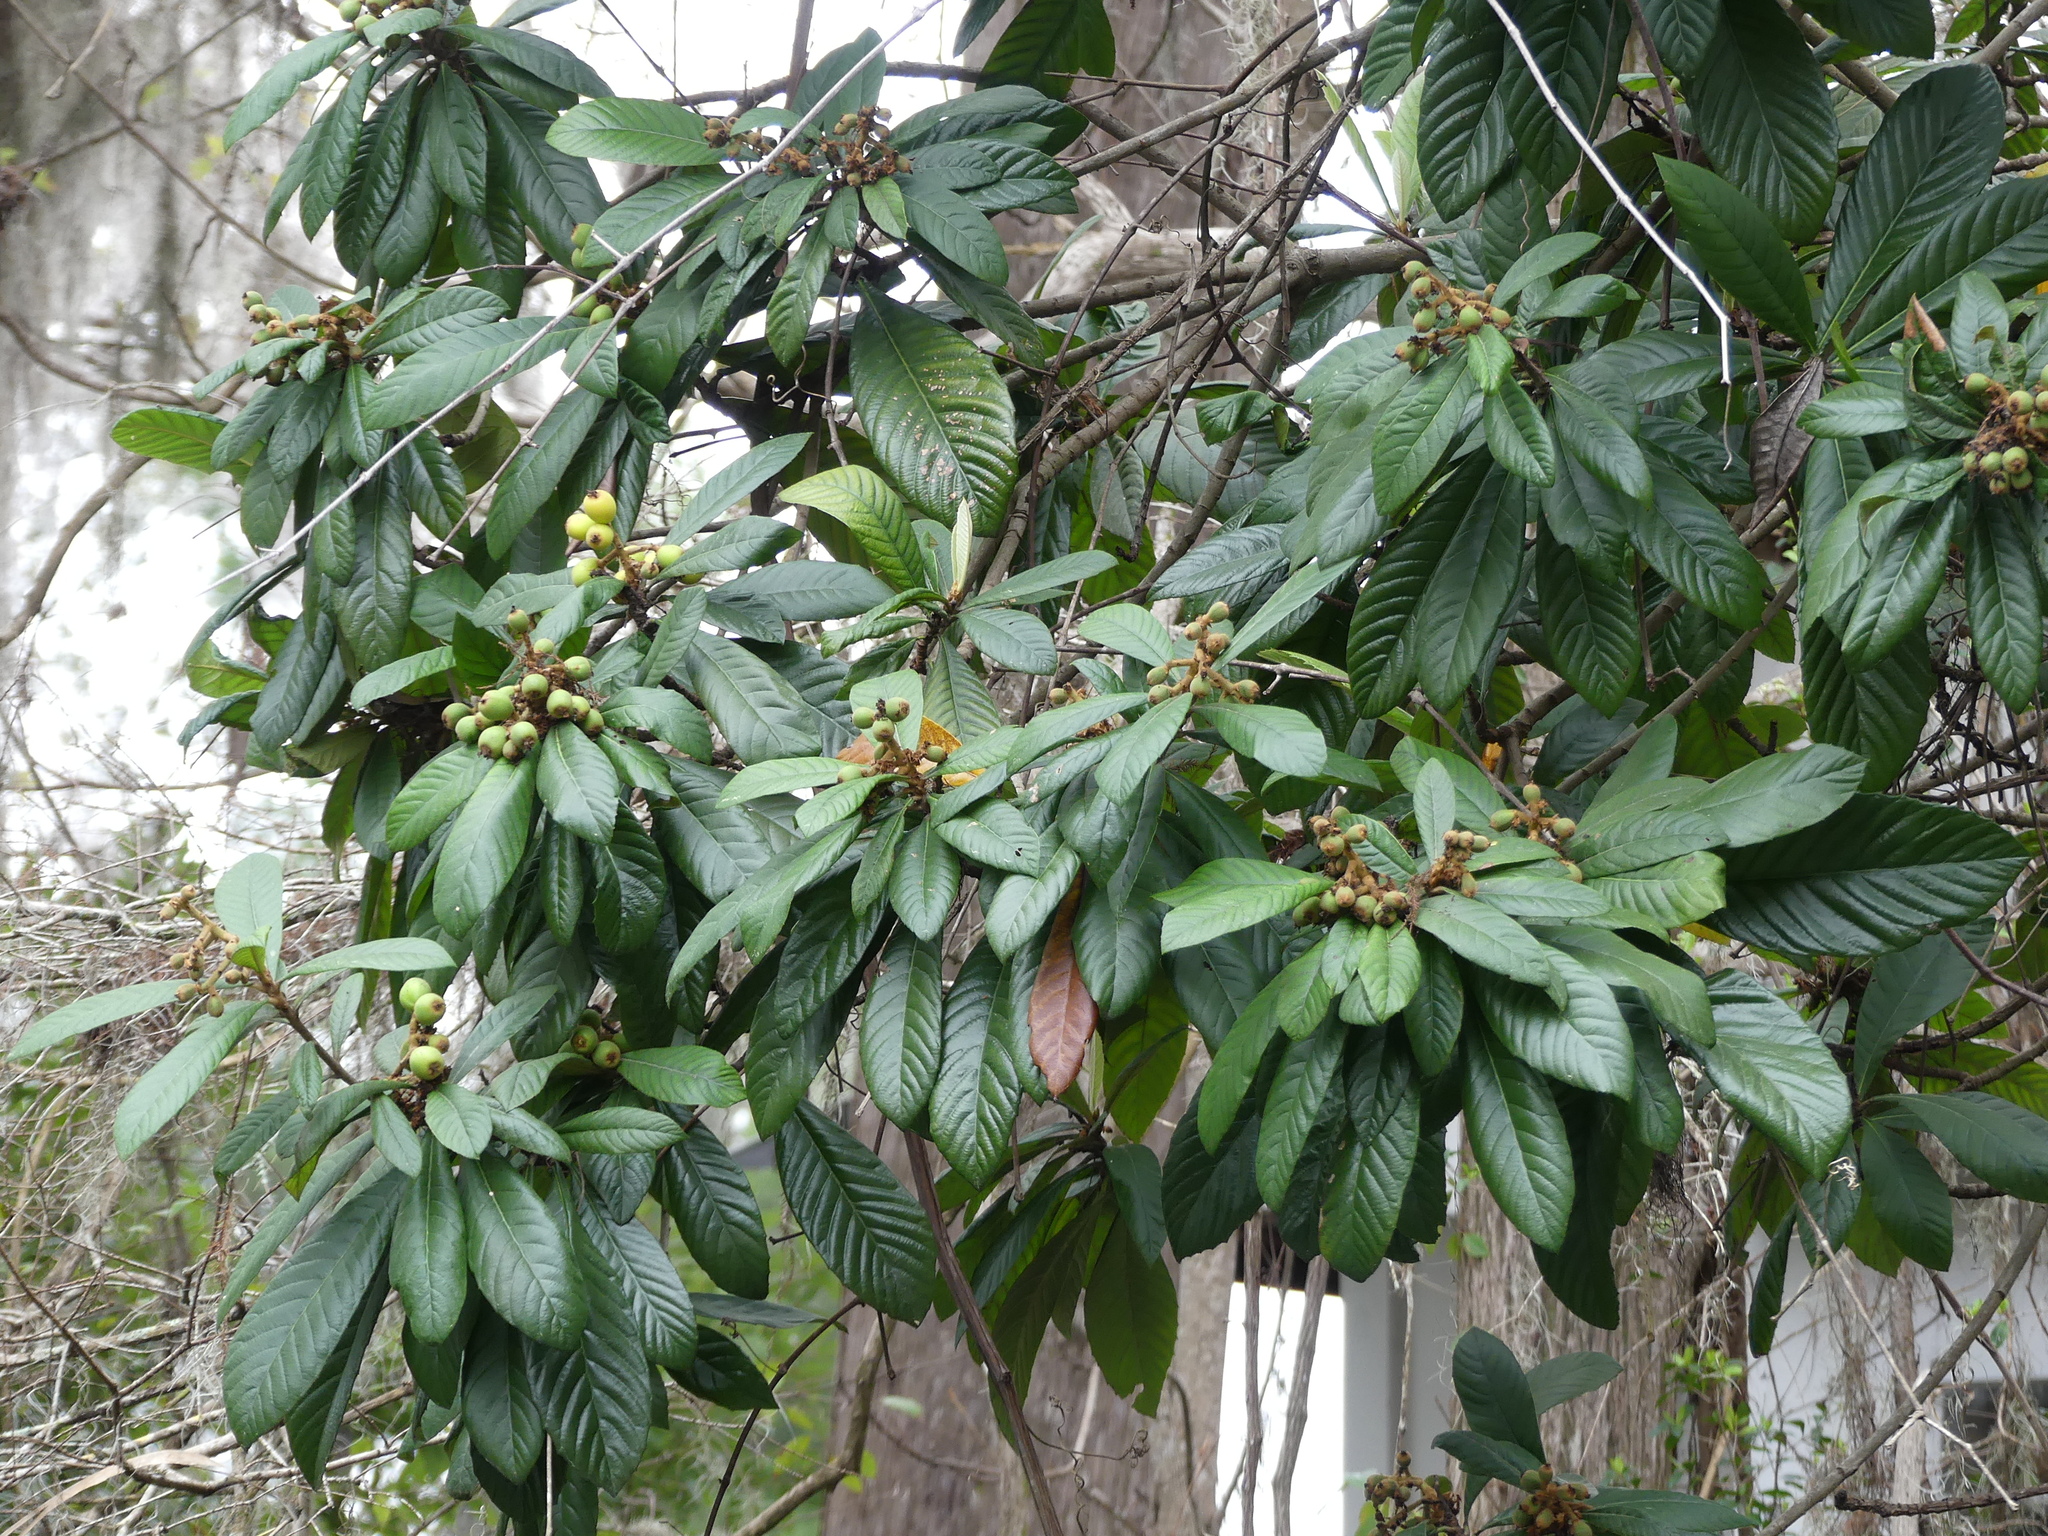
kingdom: Plantae
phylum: Tracheophyta
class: Magnoliopsida
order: Rosales
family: Rosaceae
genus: Rhaphiolepis
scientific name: Rhaphiolepis bibas
